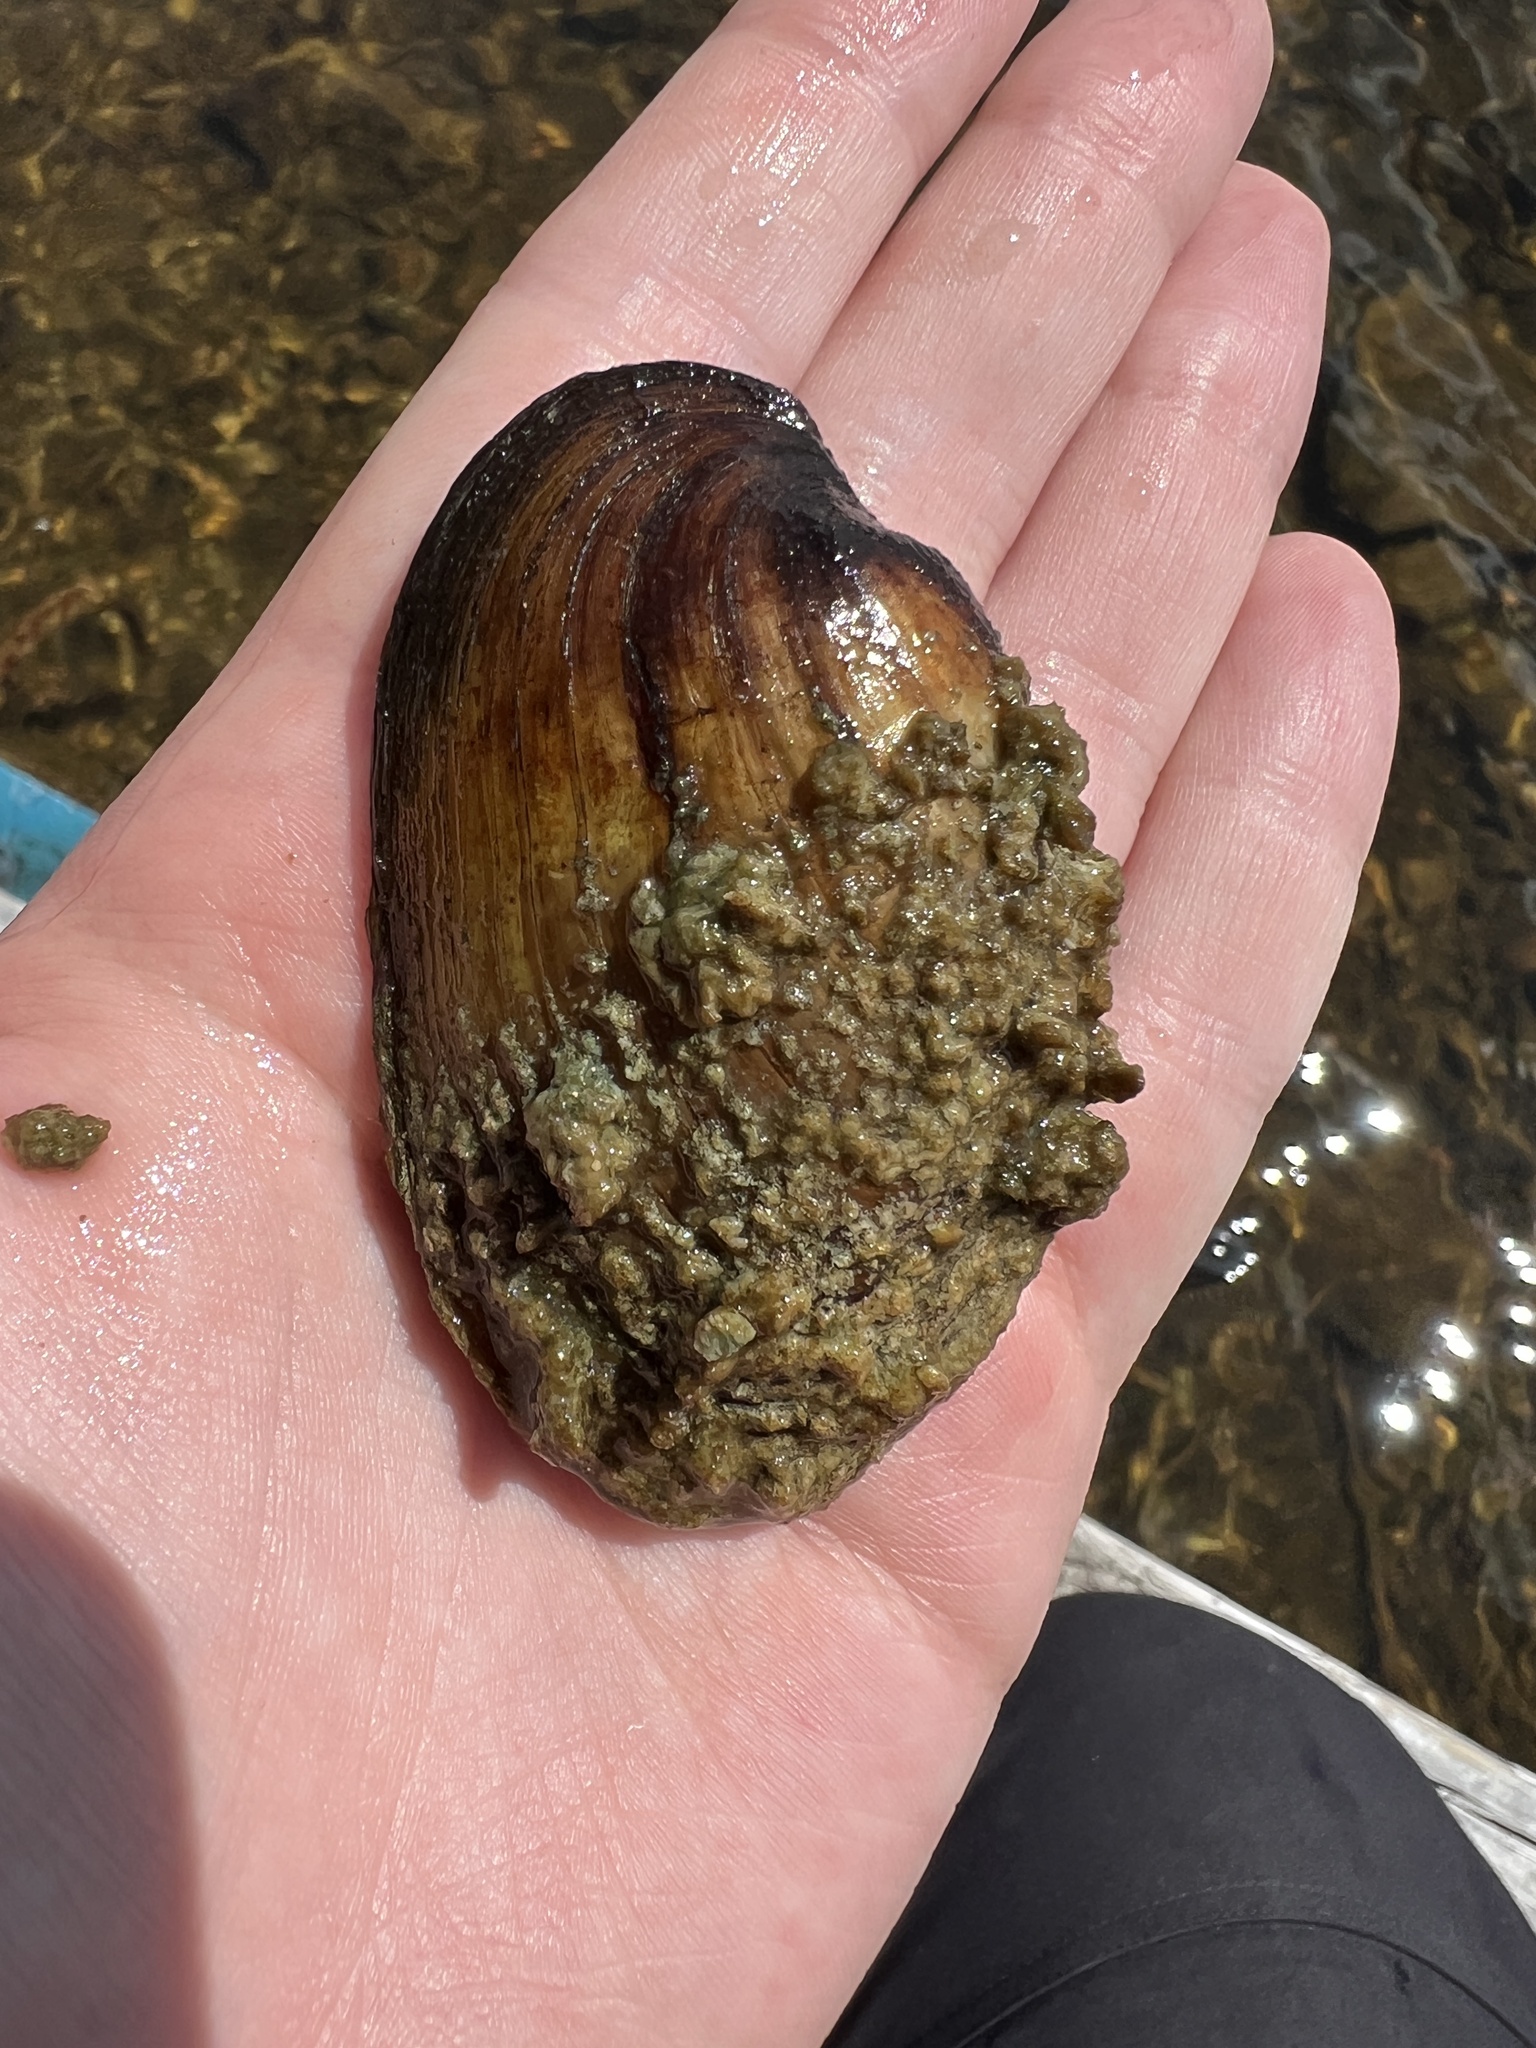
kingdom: Animalia
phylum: Mollusca
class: Bivalvia
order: Unionida
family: Unionidae
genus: Lampsilis
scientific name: Lampsilis siliquoidea
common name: Fatmucket
